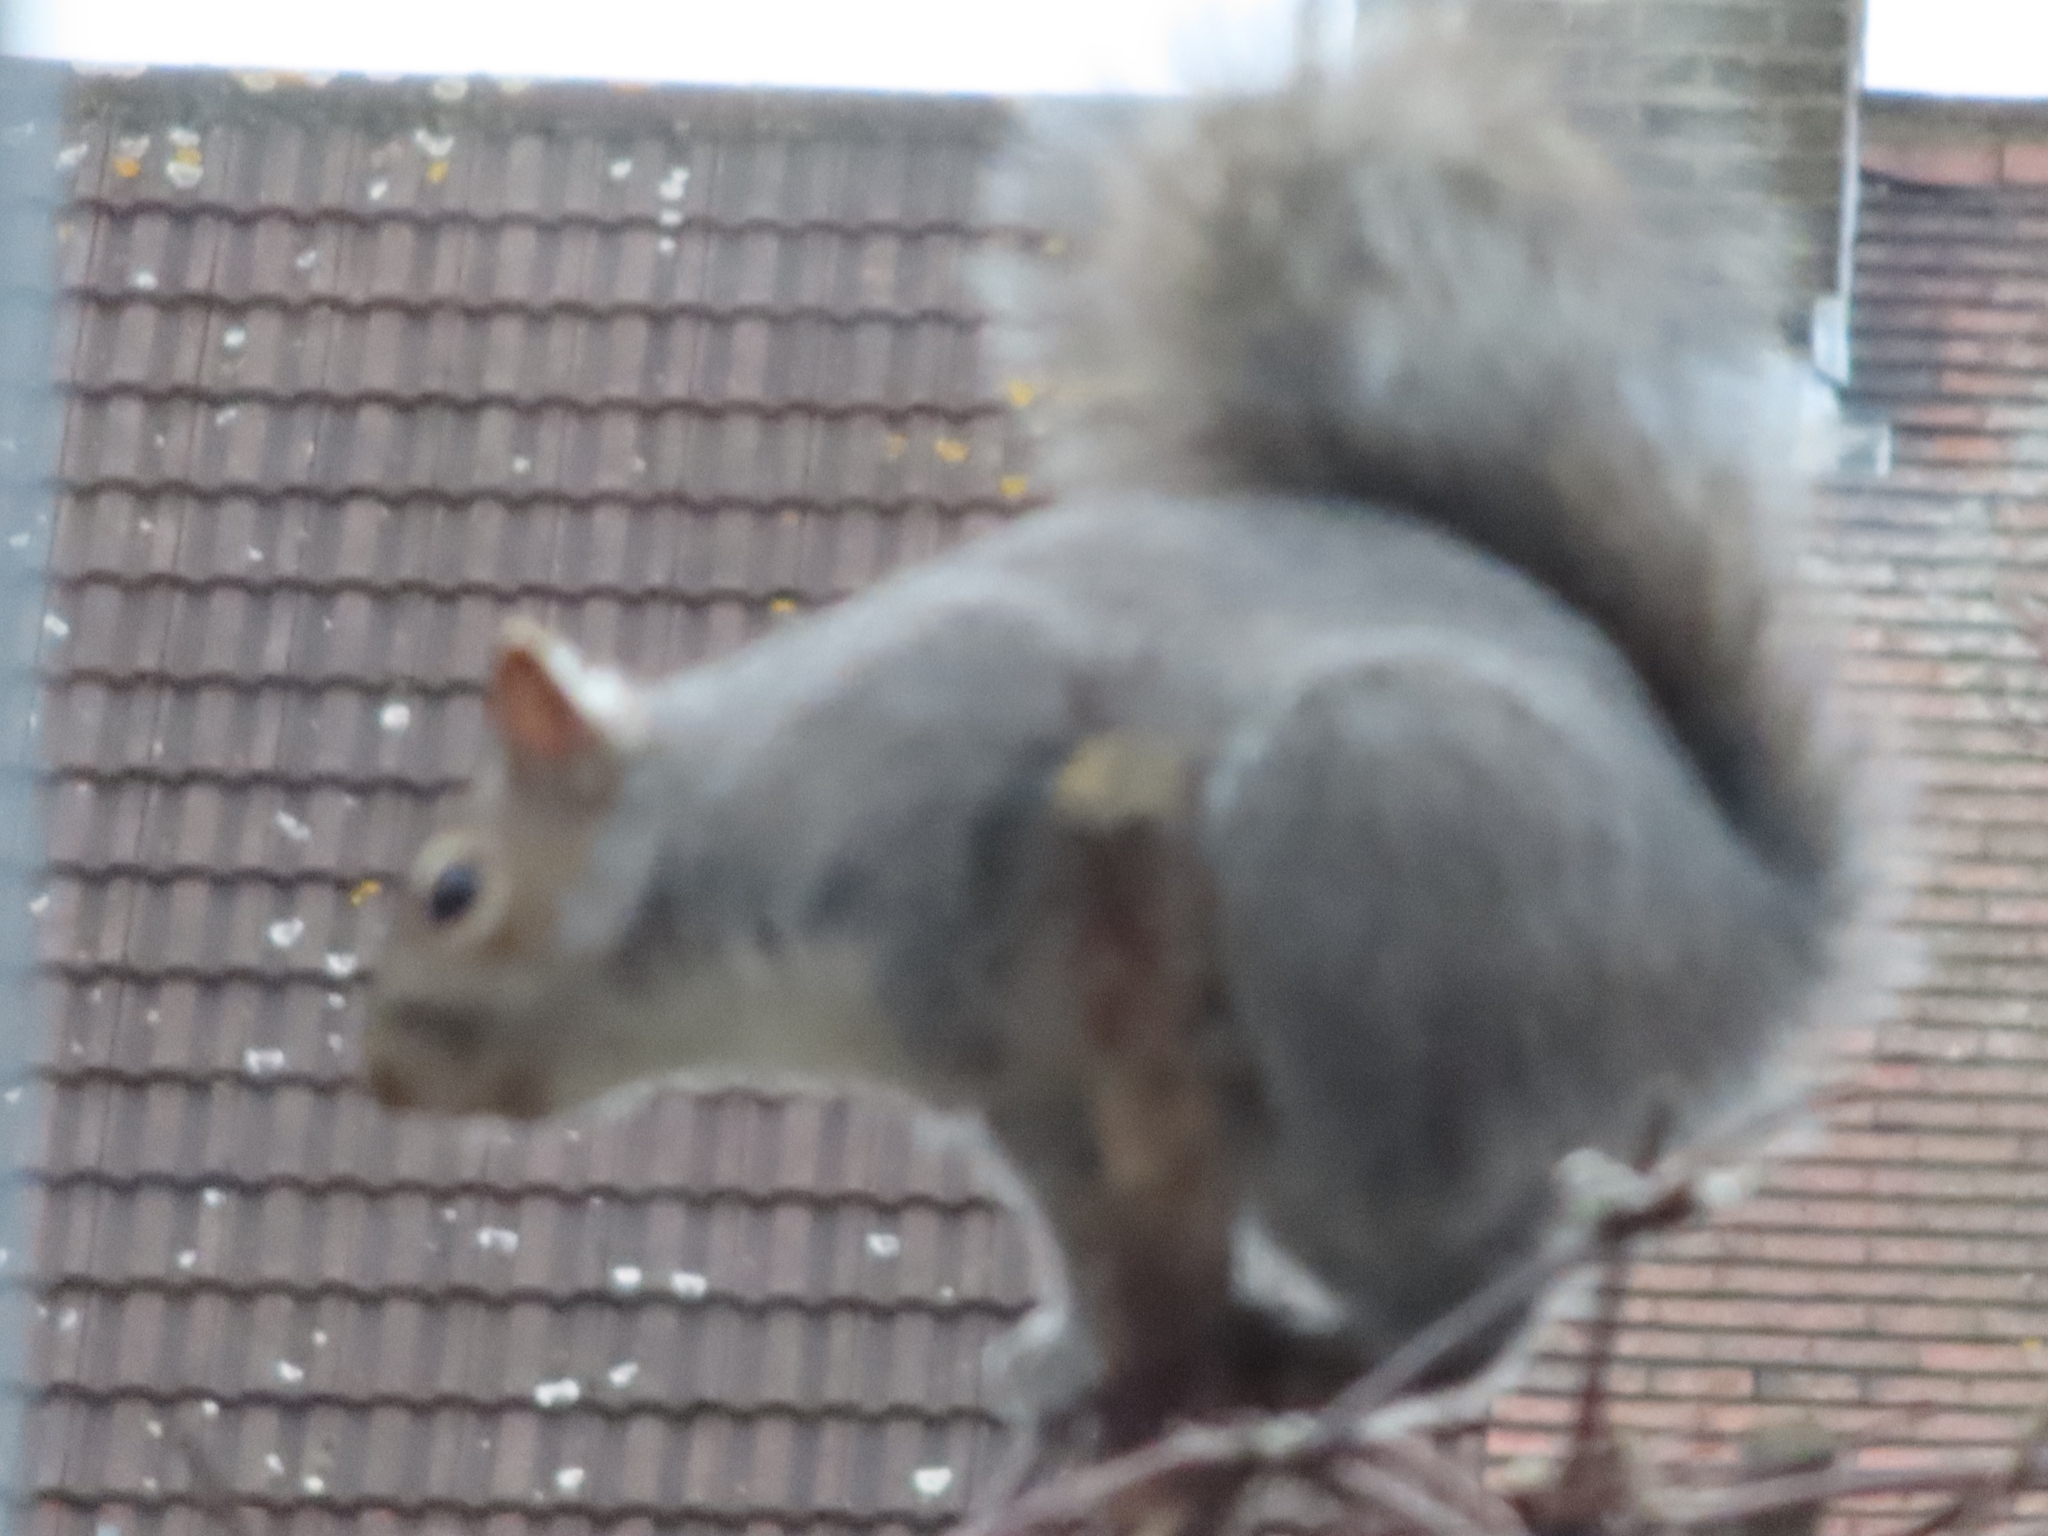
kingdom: Animalia
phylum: Chordata
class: Mammalia
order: Rodentia
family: Sciuridae
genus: Sciurus
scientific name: Sciurus carolinensis
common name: Eastern gray squirrel
